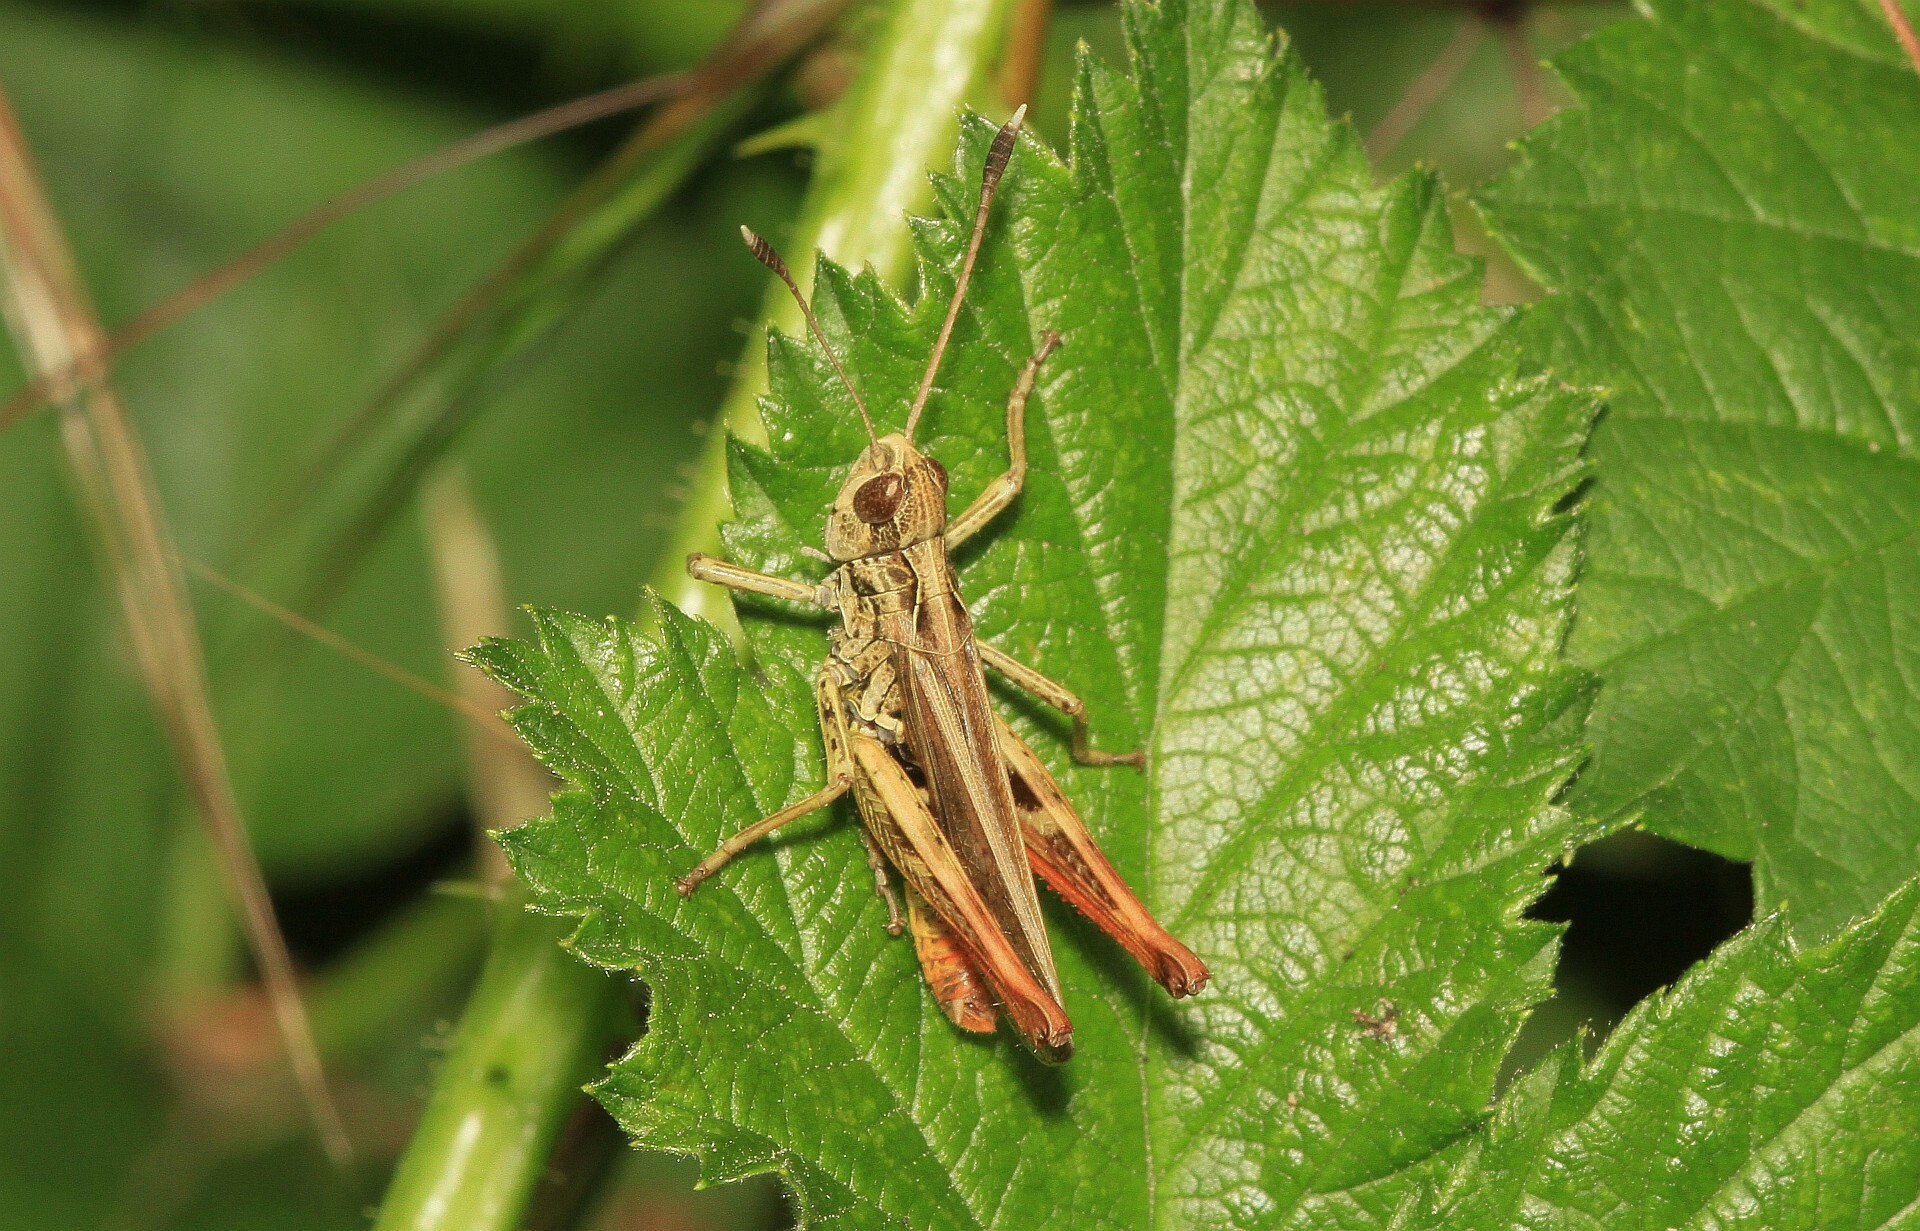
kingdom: Animalia
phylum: Arthropoda
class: Insecta
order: Orthoptera
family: Acrididae
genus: Gomphocerippus
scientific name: Gomphocerippus rufus
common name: Rufous grasshopper
